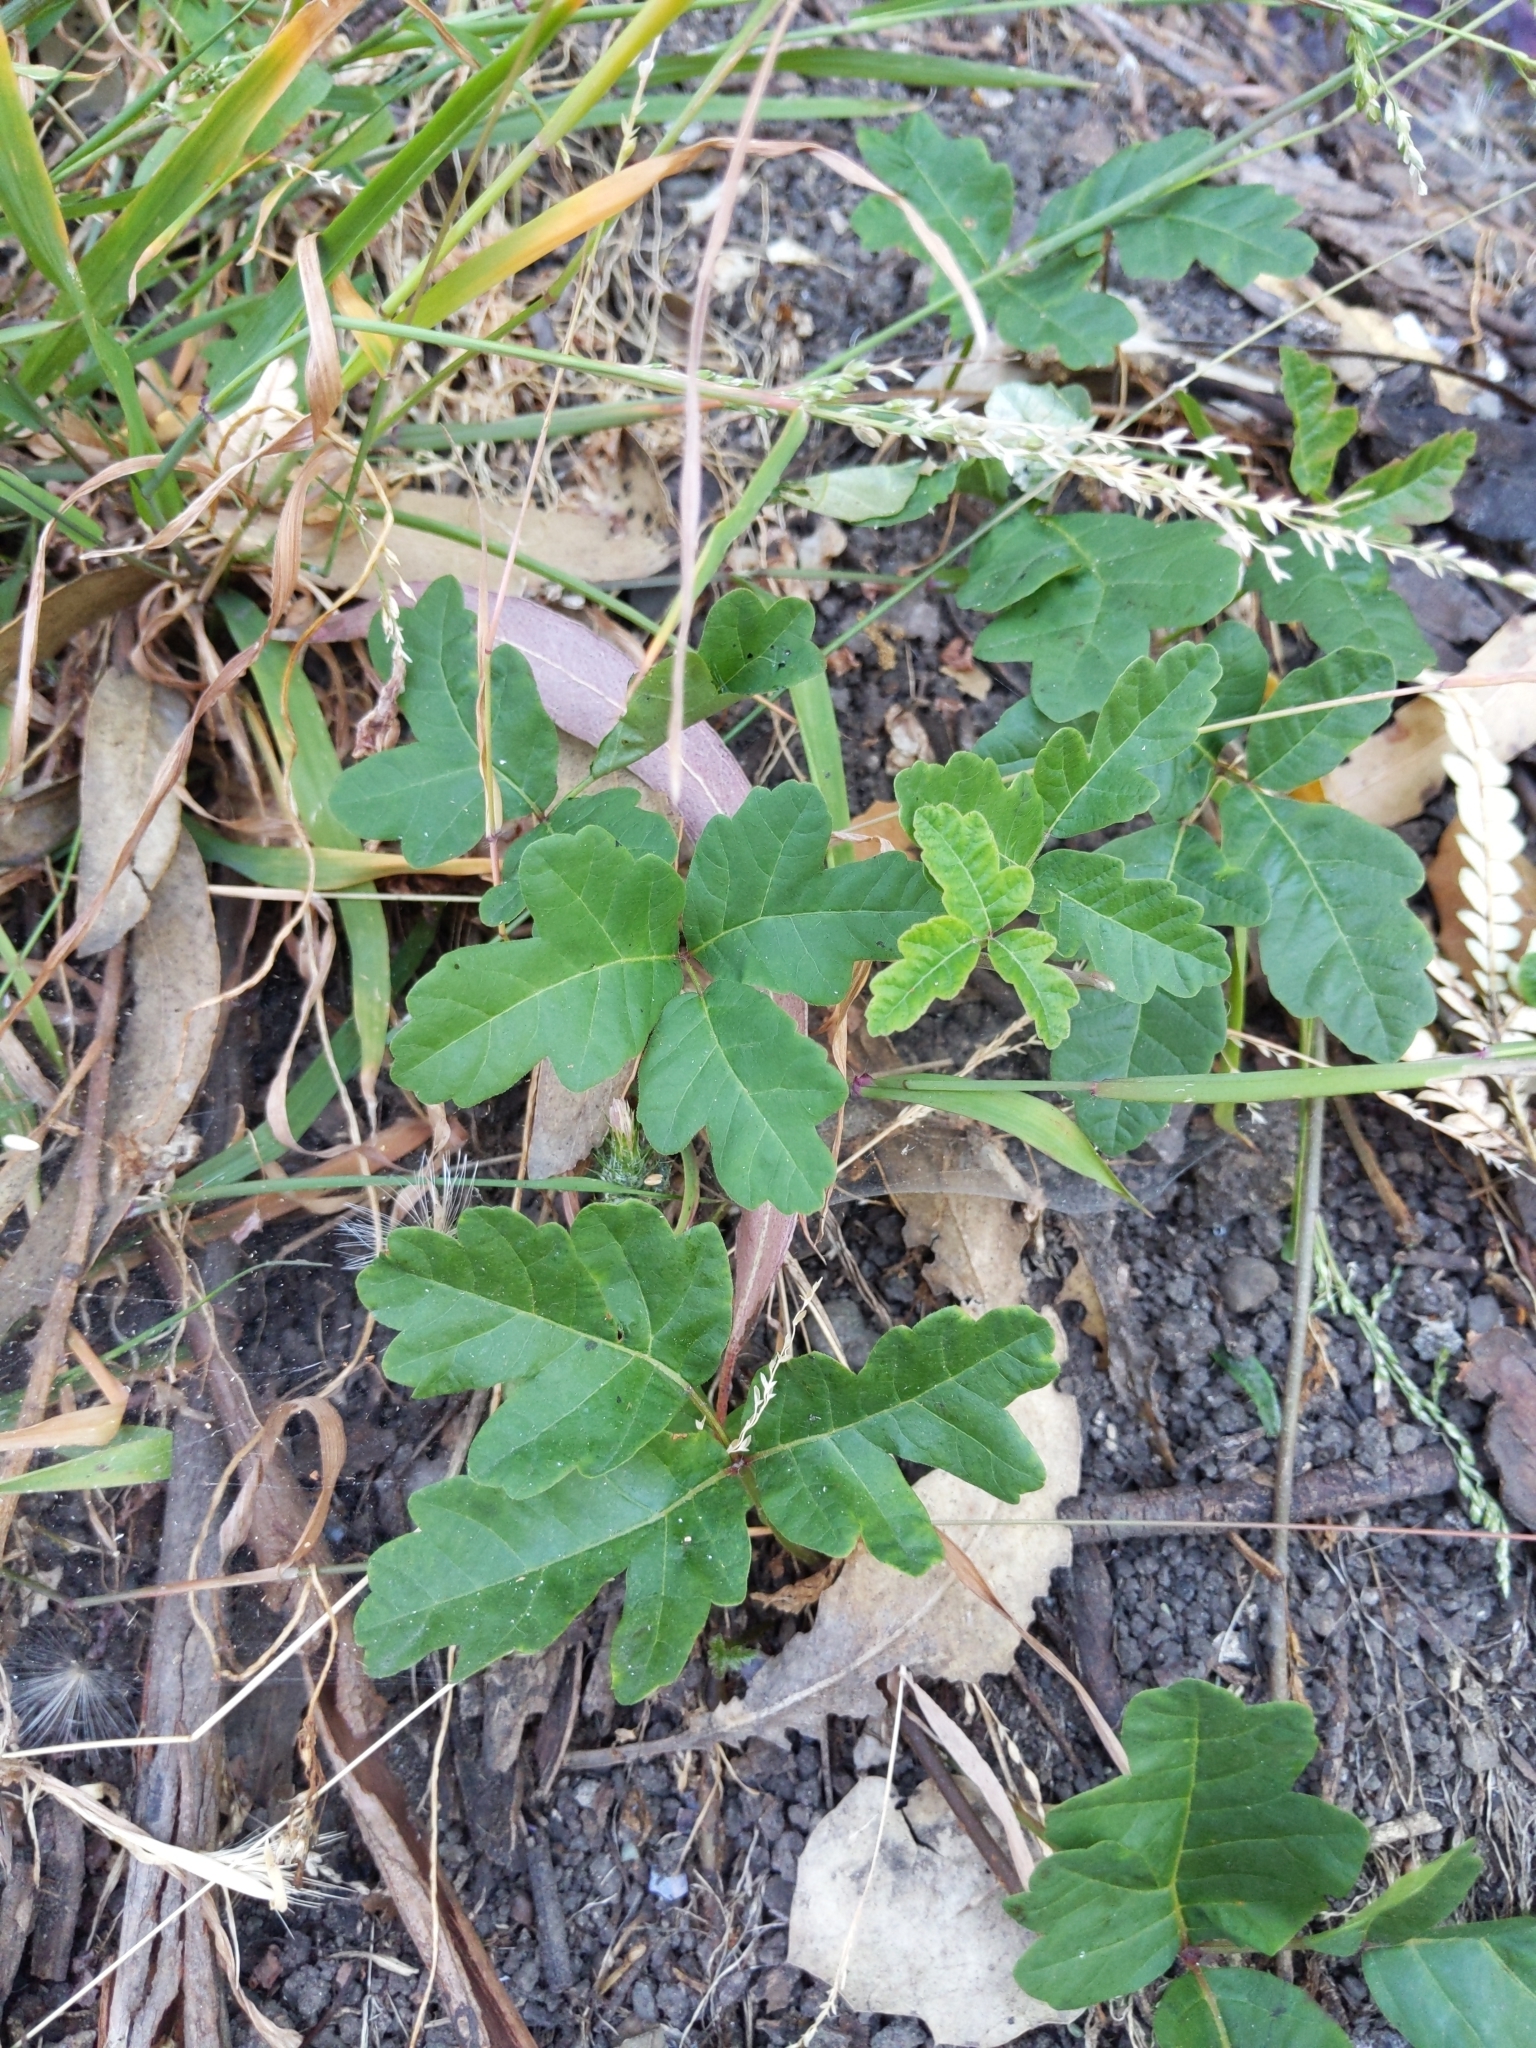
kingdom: Plantae
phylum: Tracheophyta
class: Magnoliopsida
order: Sapindales
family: Anacardiaceae
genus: Toxicodendron
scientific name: Toxicodendron diversilobum
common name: Pacific poison-oak
